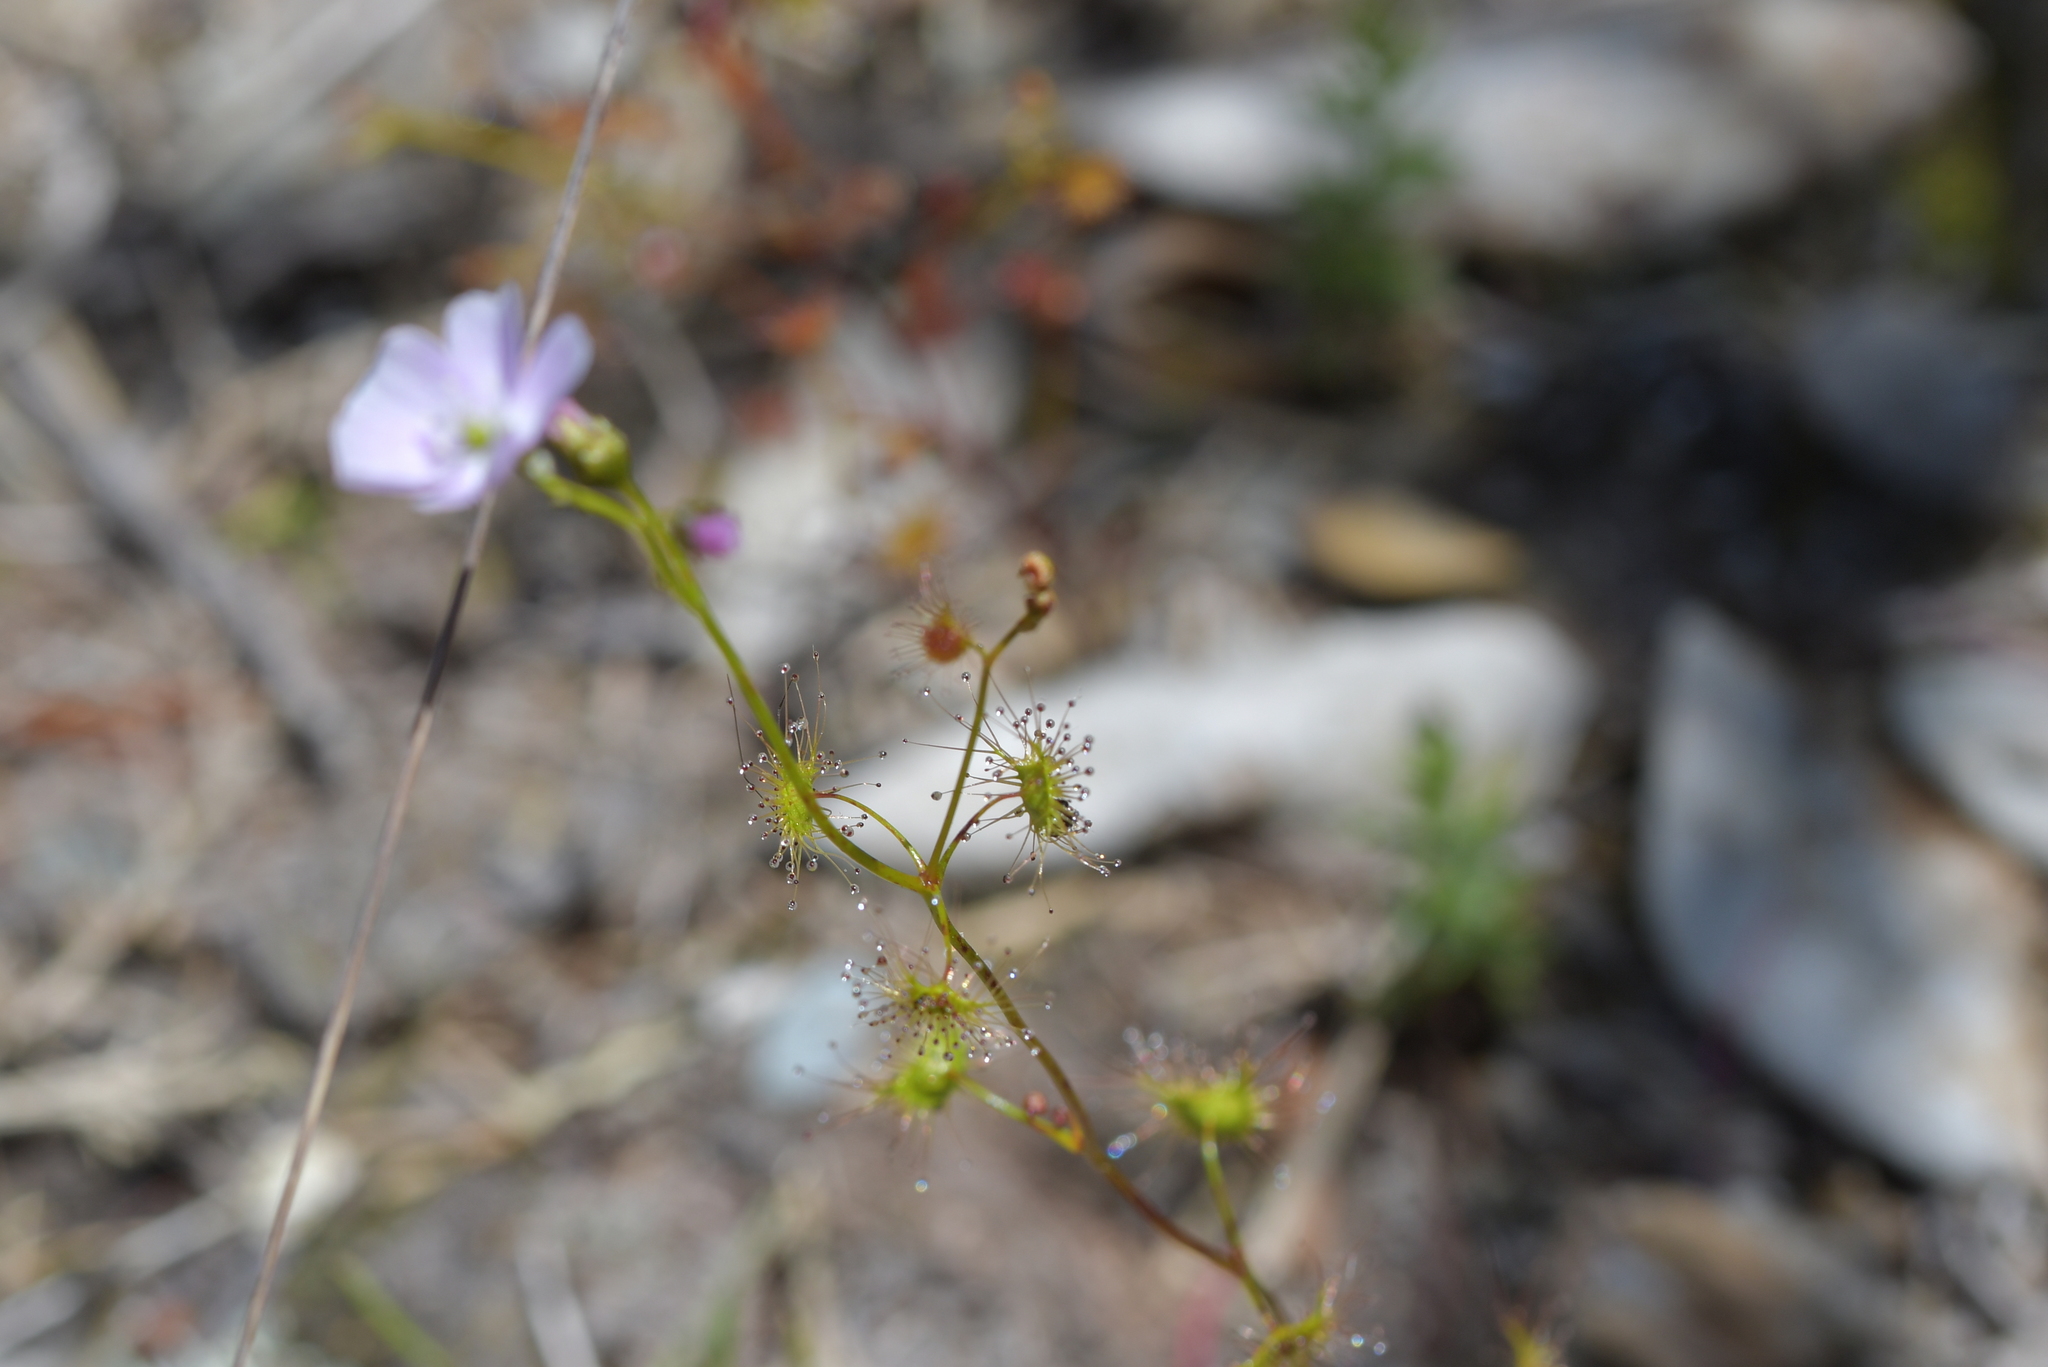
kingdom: Plantae
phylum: Tracheophyta
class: Magnoliopsida
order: Caryophyllales
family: Droseraceae
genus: Drosera
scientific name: Drosera peltata
